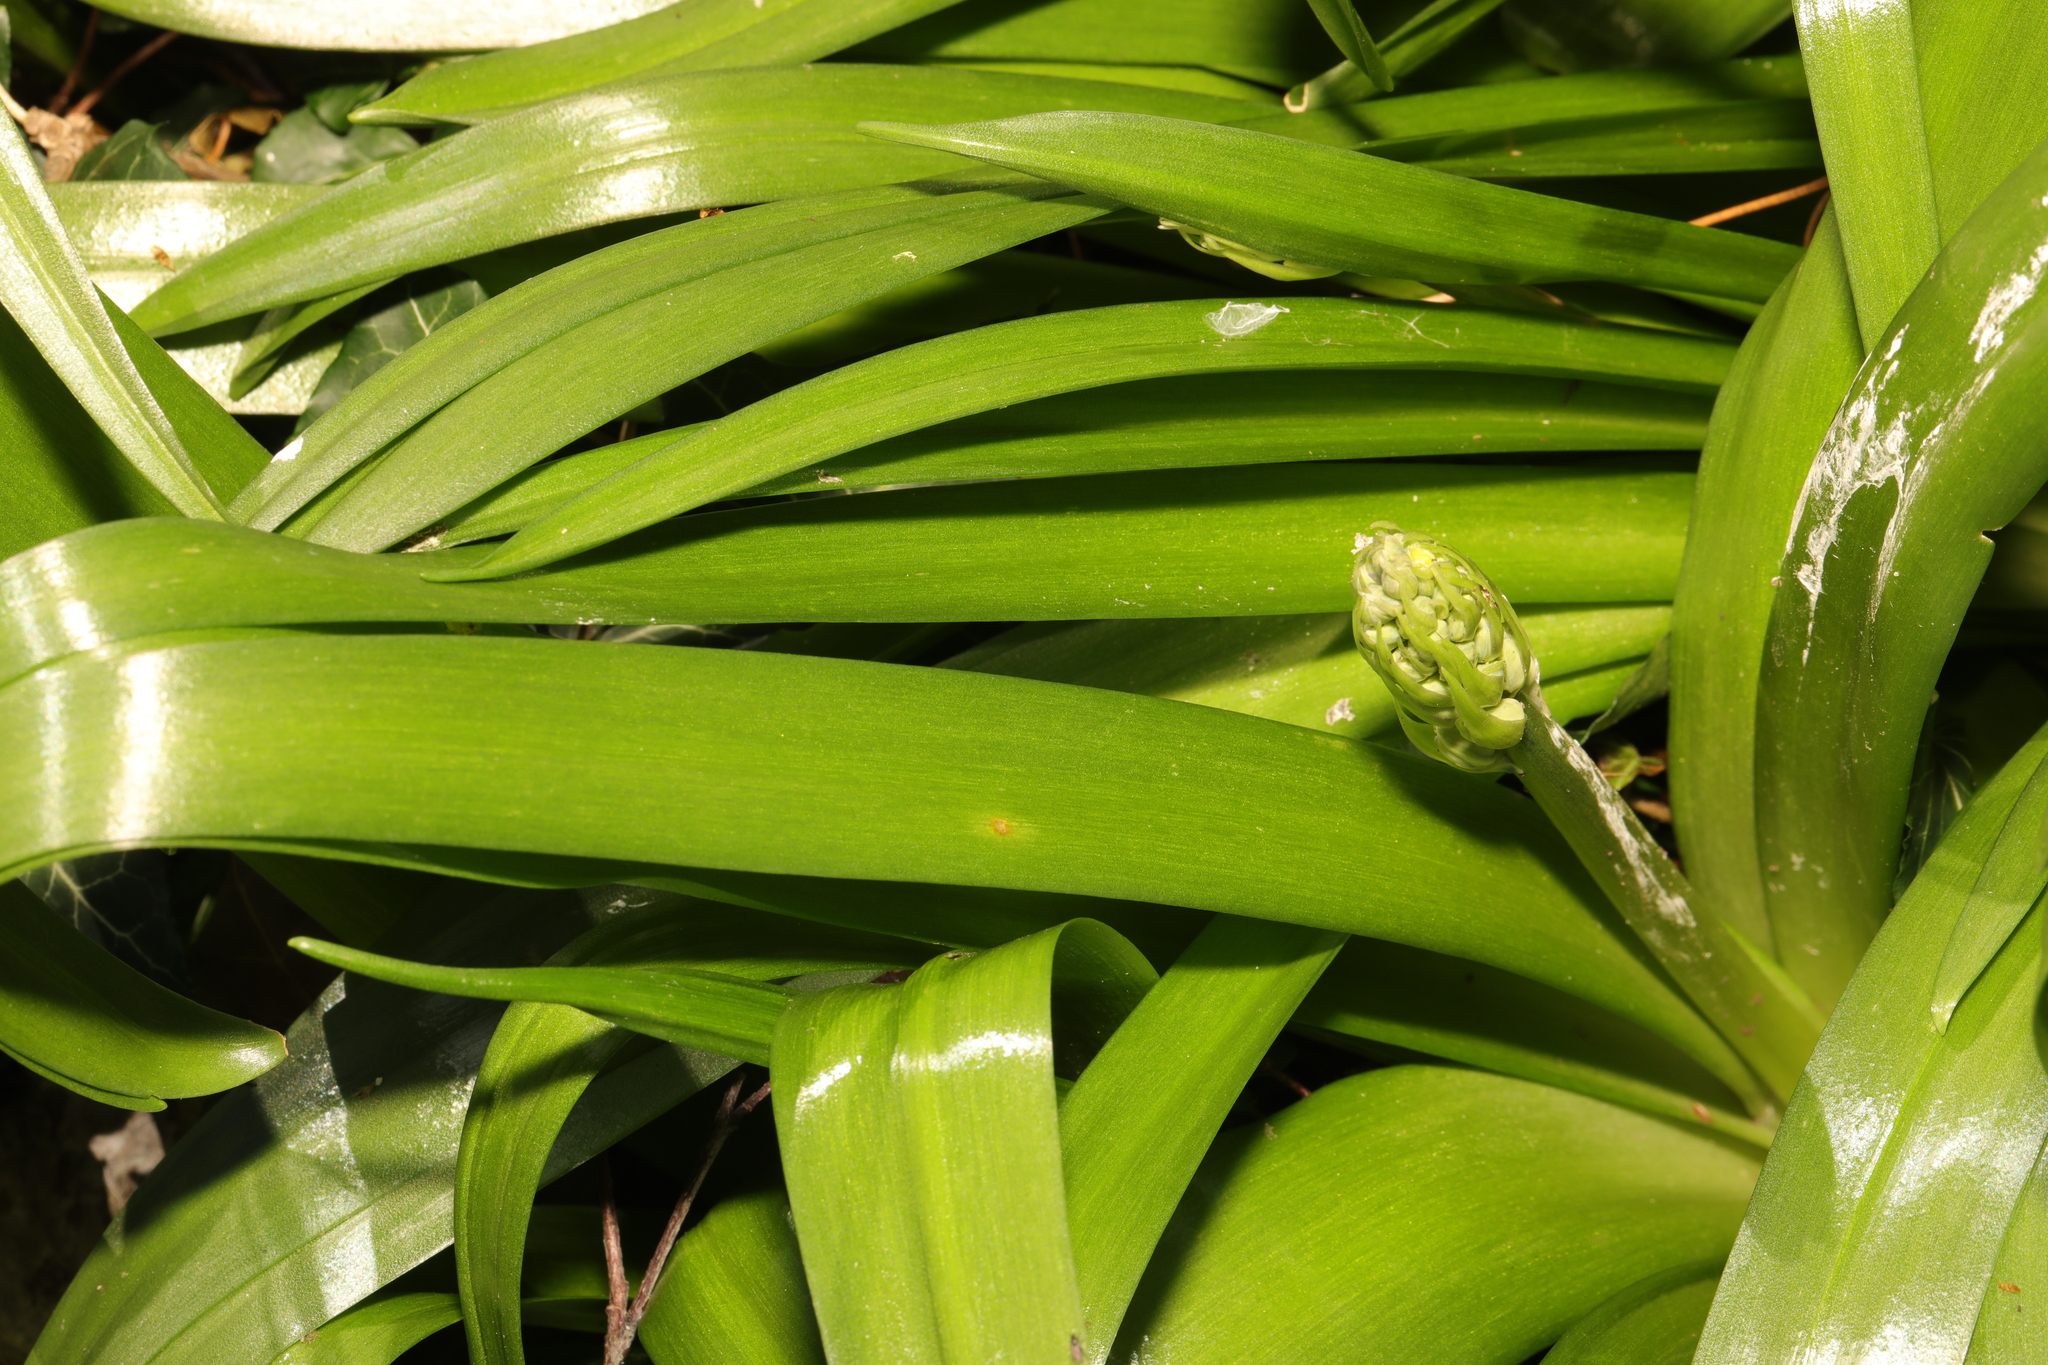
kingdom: Plantae
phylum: Tracheophyta
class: Liliopsida
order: Asparagales
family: Asparagaceae
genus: Hyacinthoides
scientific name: Hyacinthoides massartiana
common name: Hyacinthoides
